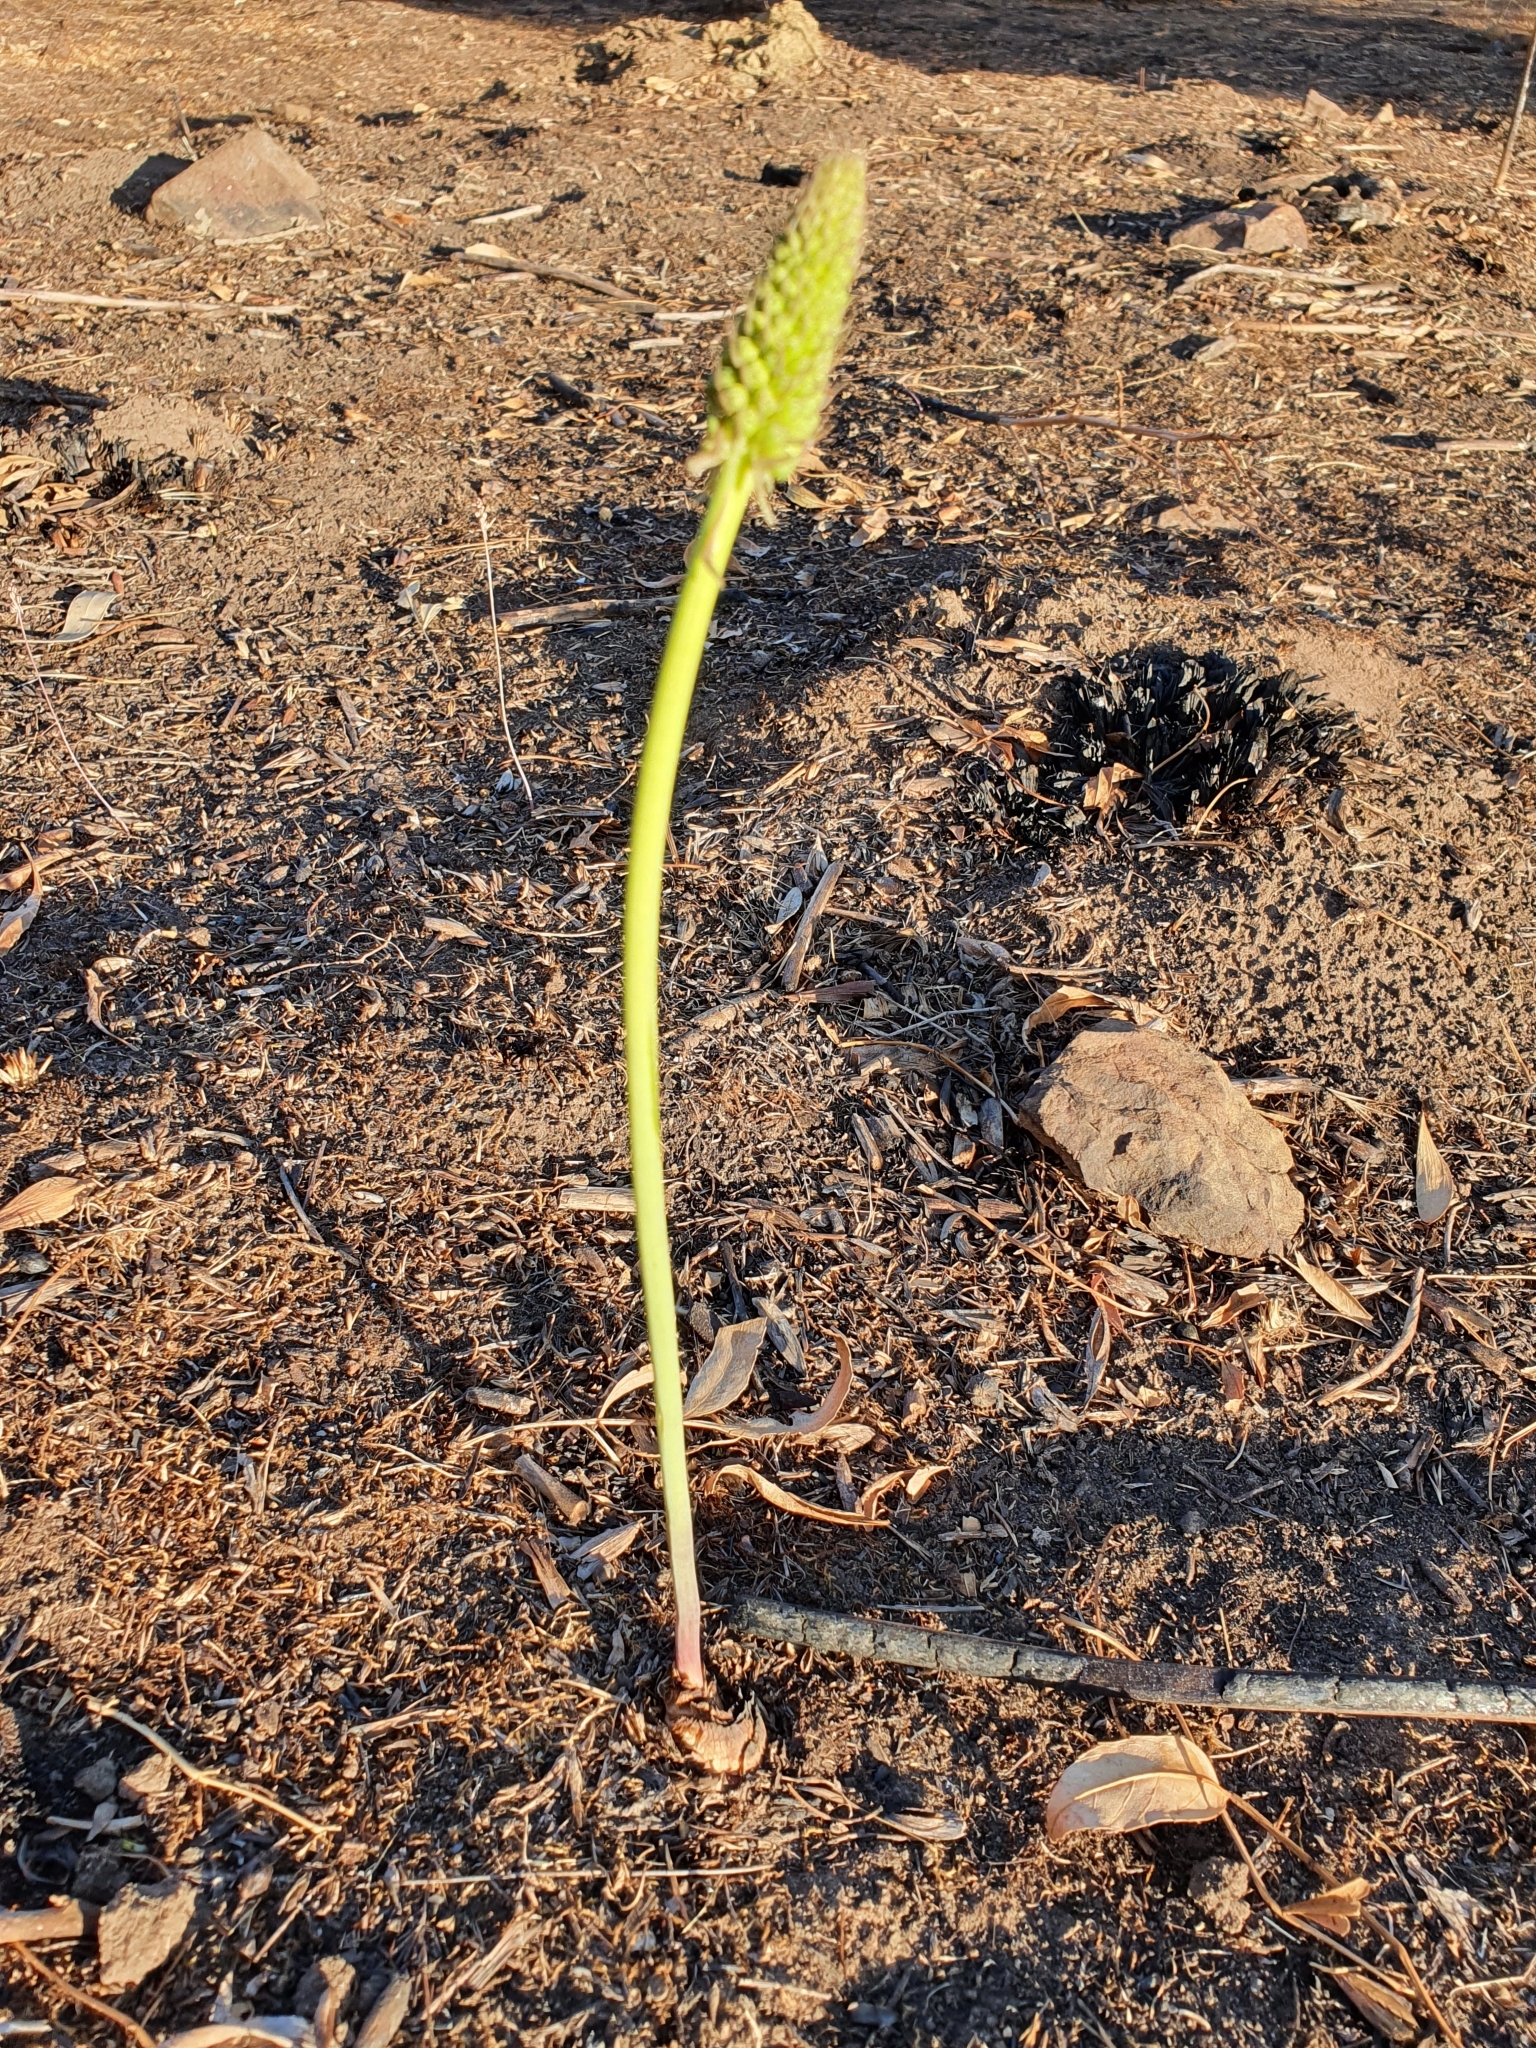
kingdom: Plantae
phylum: Tracheophyta
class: Liliopsida
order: Asparagales
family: Asparagaceae
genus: Drimia
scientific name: Drimia anthericoides
